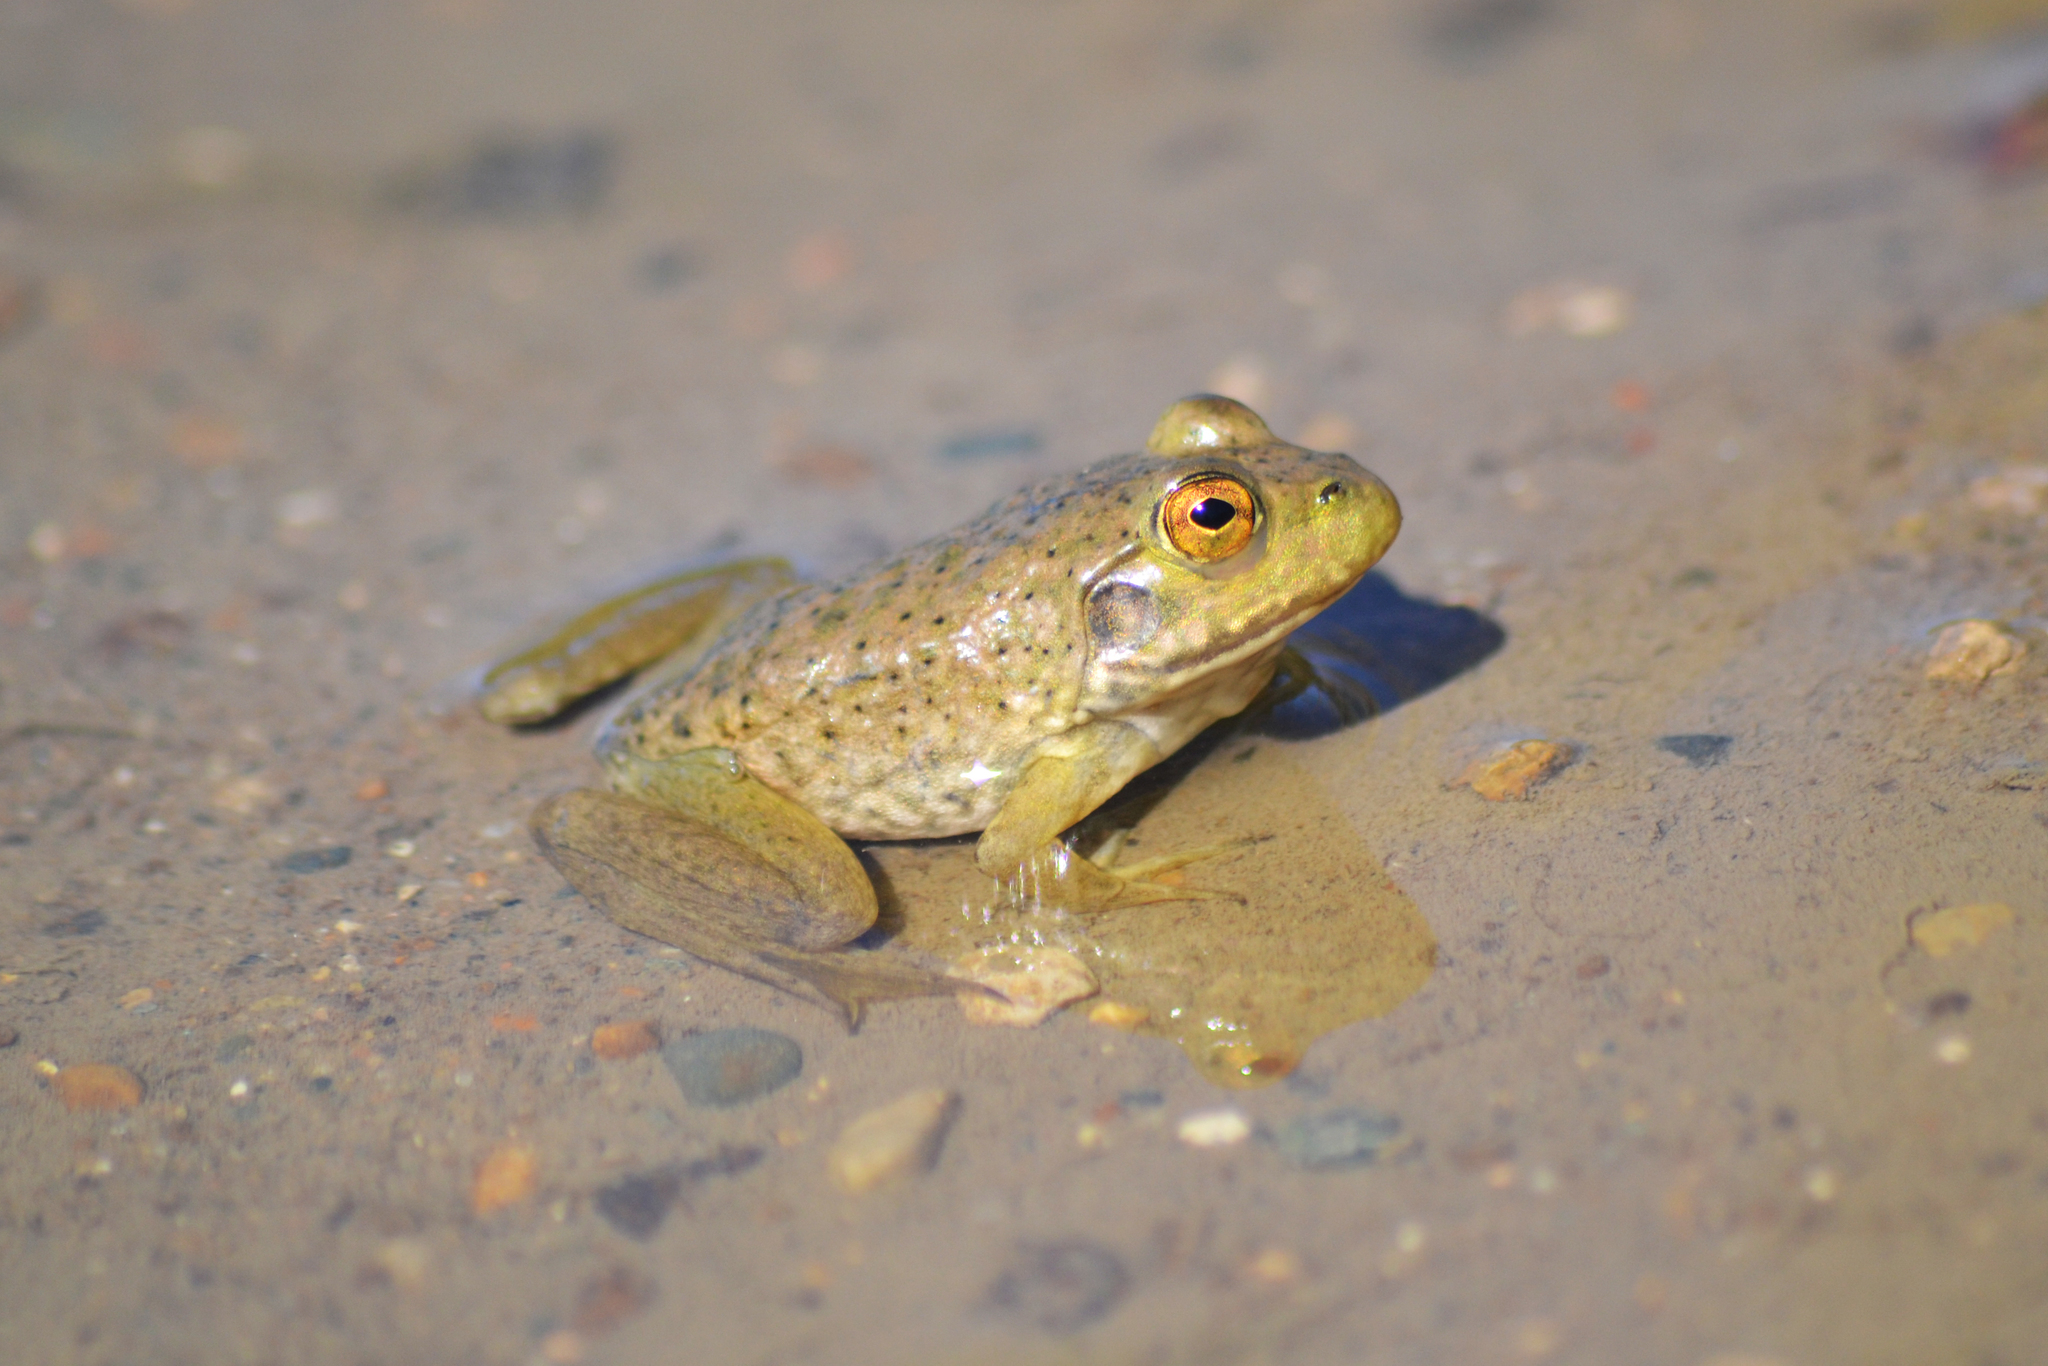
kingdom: Animalia
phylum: Chordata
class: Amphibia
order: Anura
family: Ranidae
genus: Lithobates
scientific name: Lithobates catesbeianus
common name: American bullfrog
